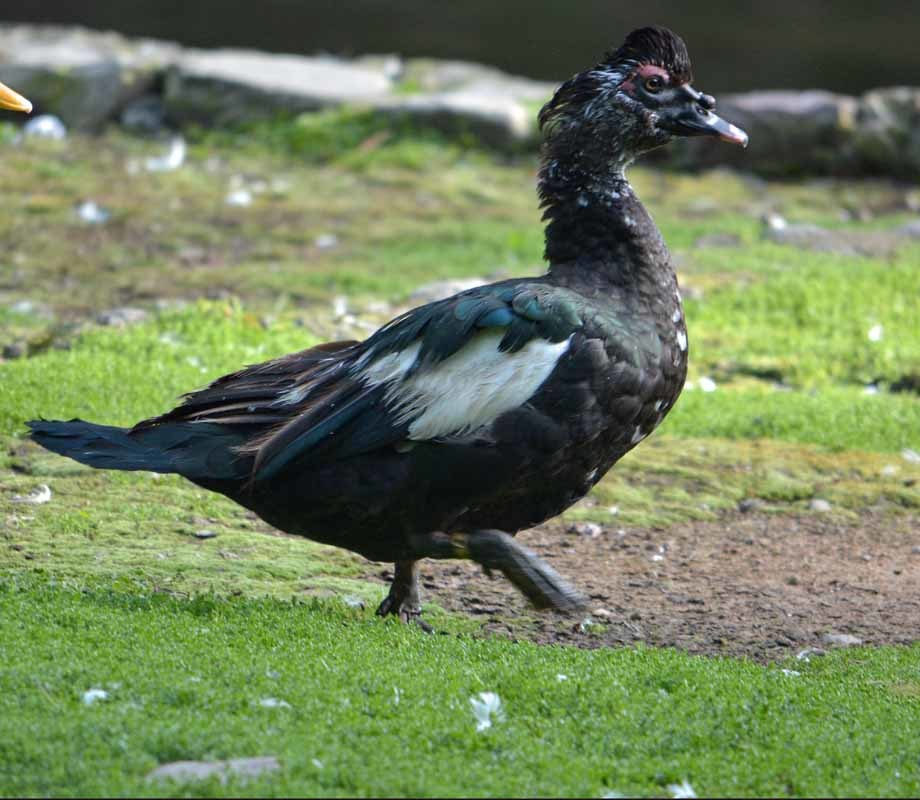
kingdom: Animalia
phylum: Chordata
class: Aves
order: Anseriformes
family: Anatidae
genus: Cairina
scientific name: Cairina moschata
